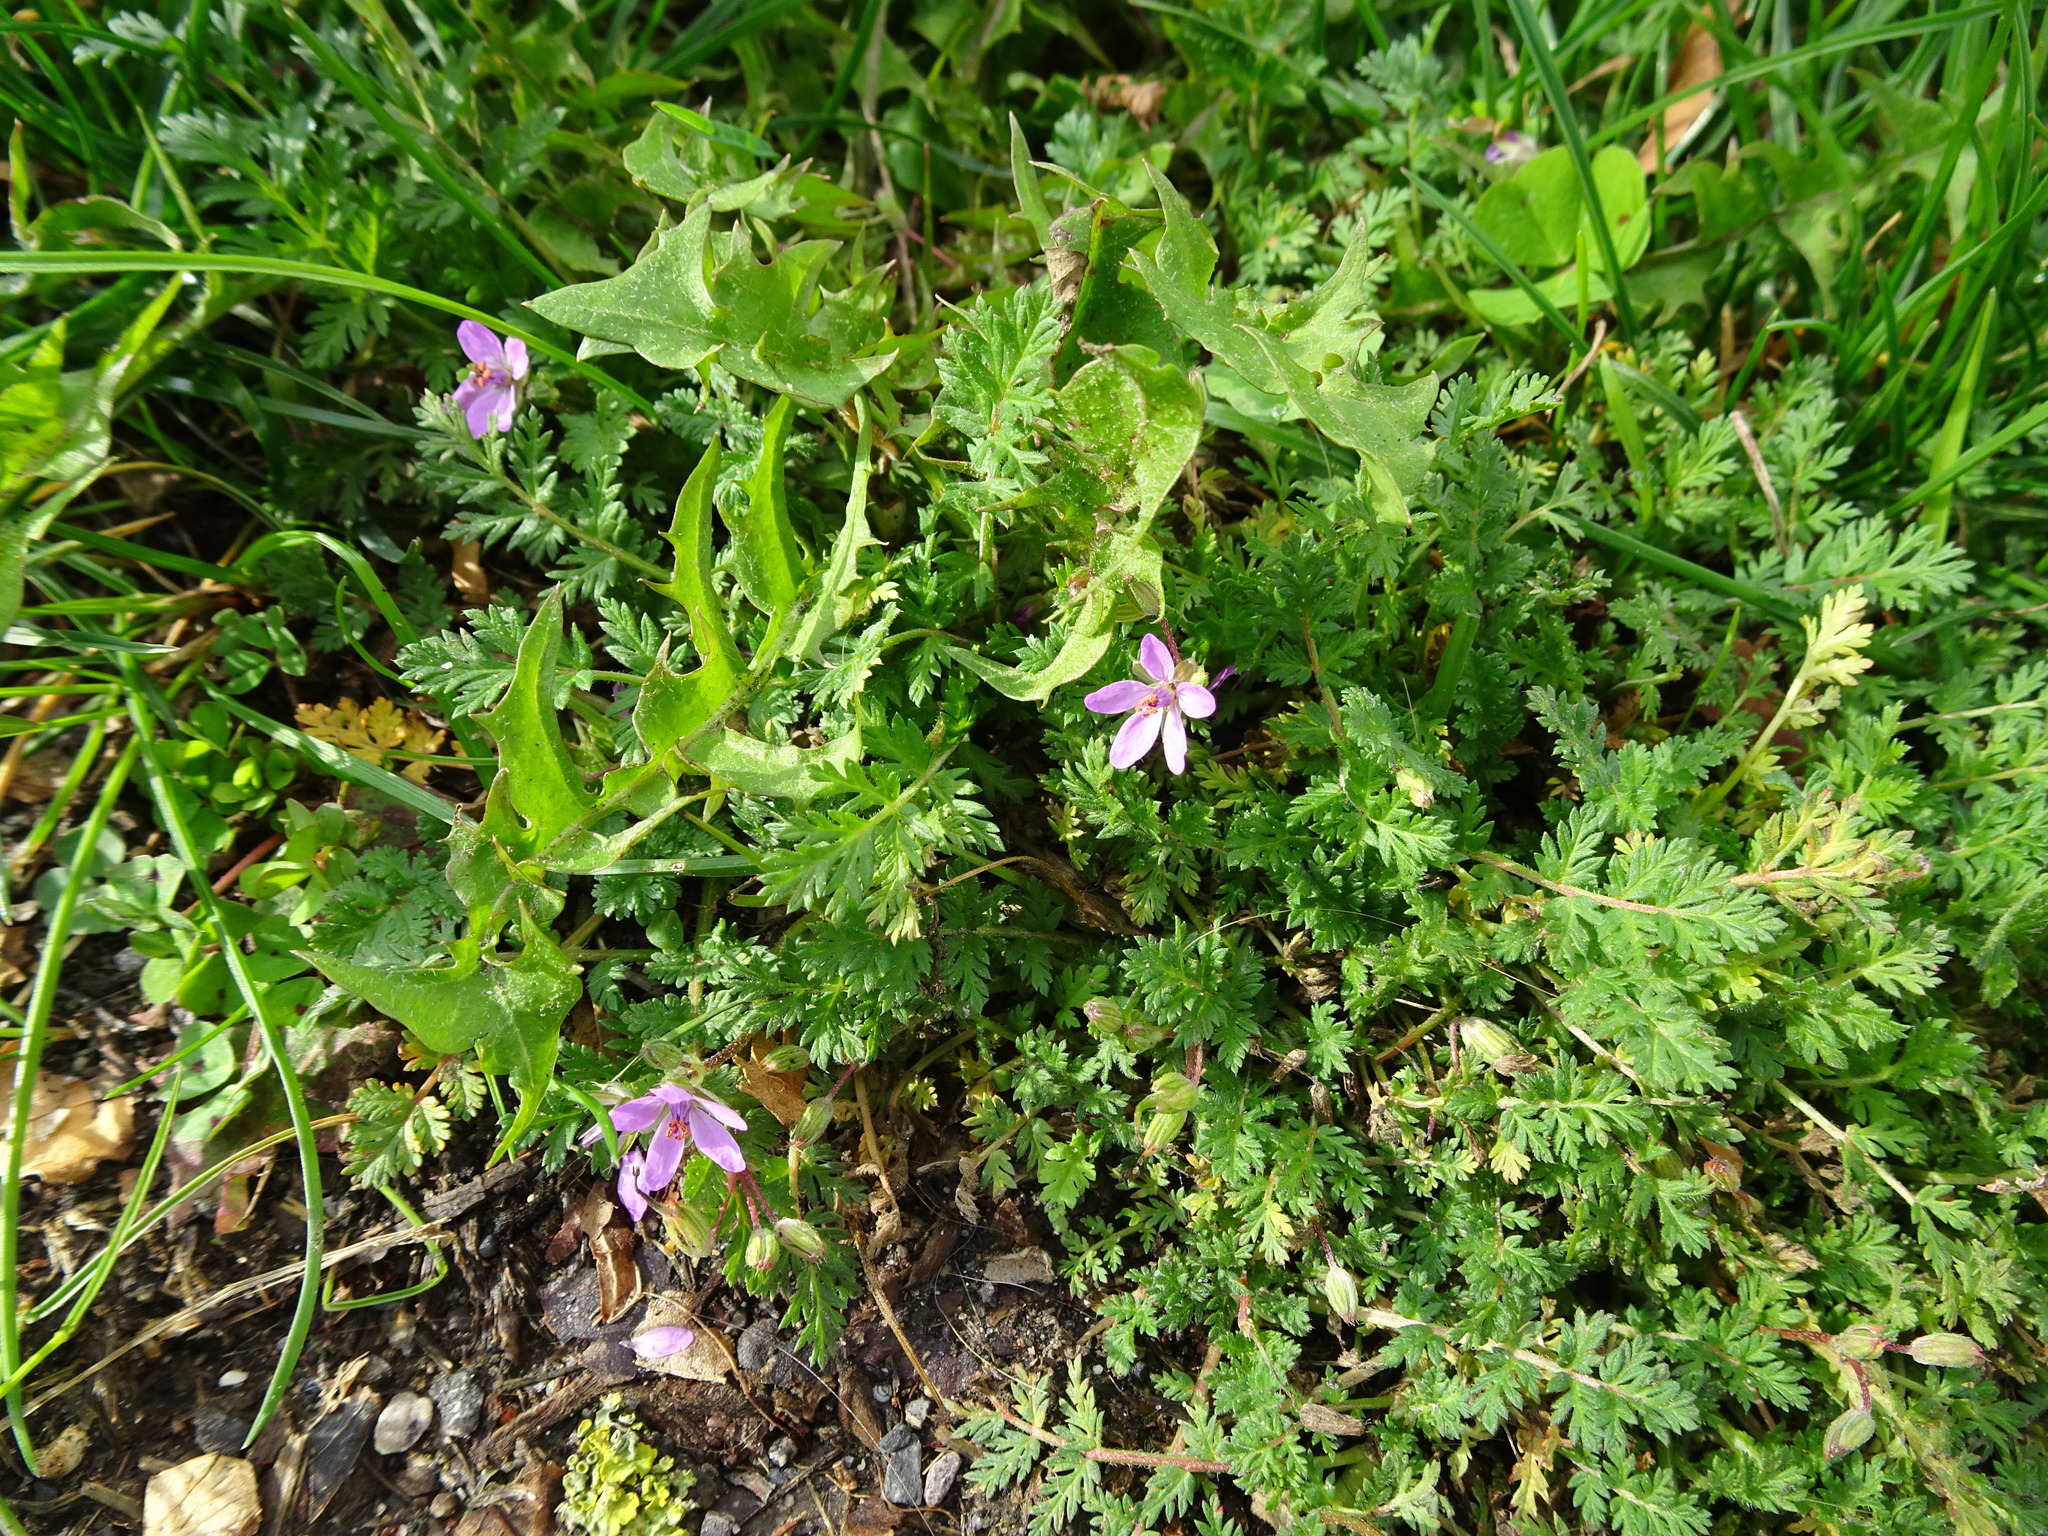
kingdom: Plantae
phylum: Tracheophyta
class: Magnoliopsida
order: Geraniales
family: Geraniaceae
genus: Erodium
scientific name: Erodium cicutarium
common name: Common stork's-bill
